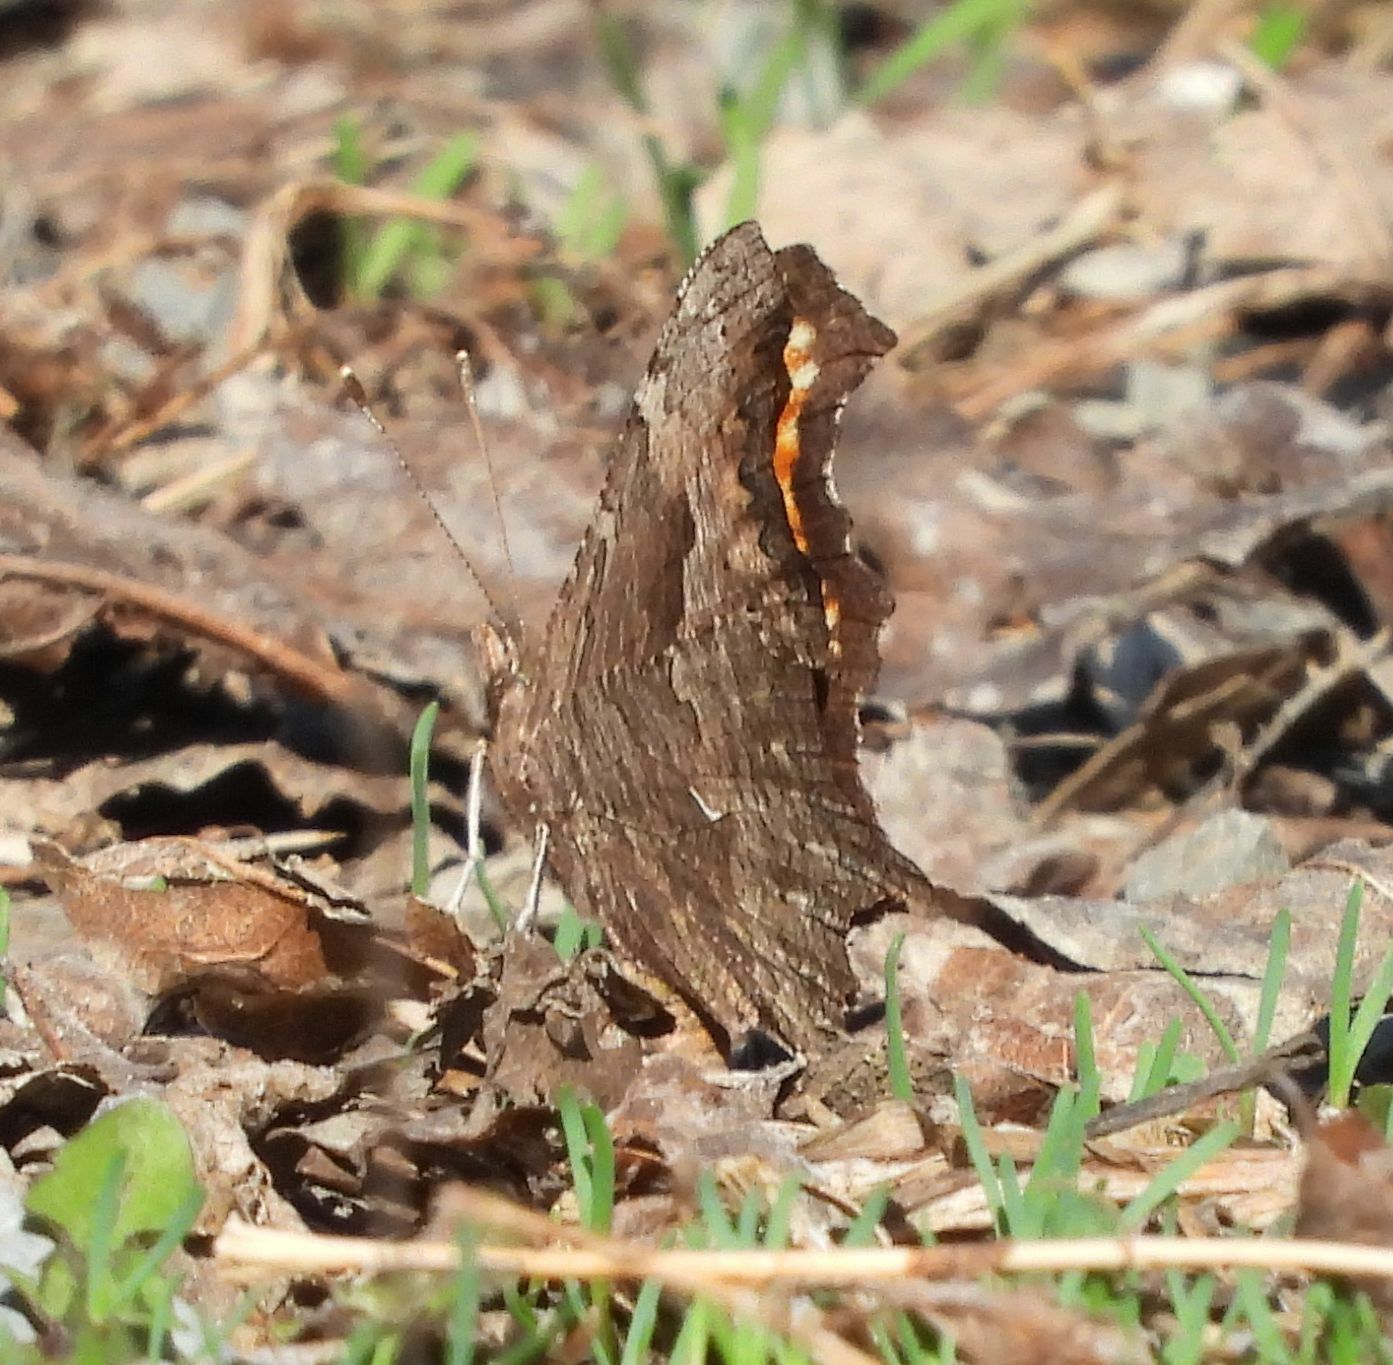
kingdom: Animalia
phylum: Arthropoda
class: Insecta
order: Lepidoptera
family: Nymphalidae
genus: Polygonia
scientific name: Polygonia progne
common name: Gray comma
